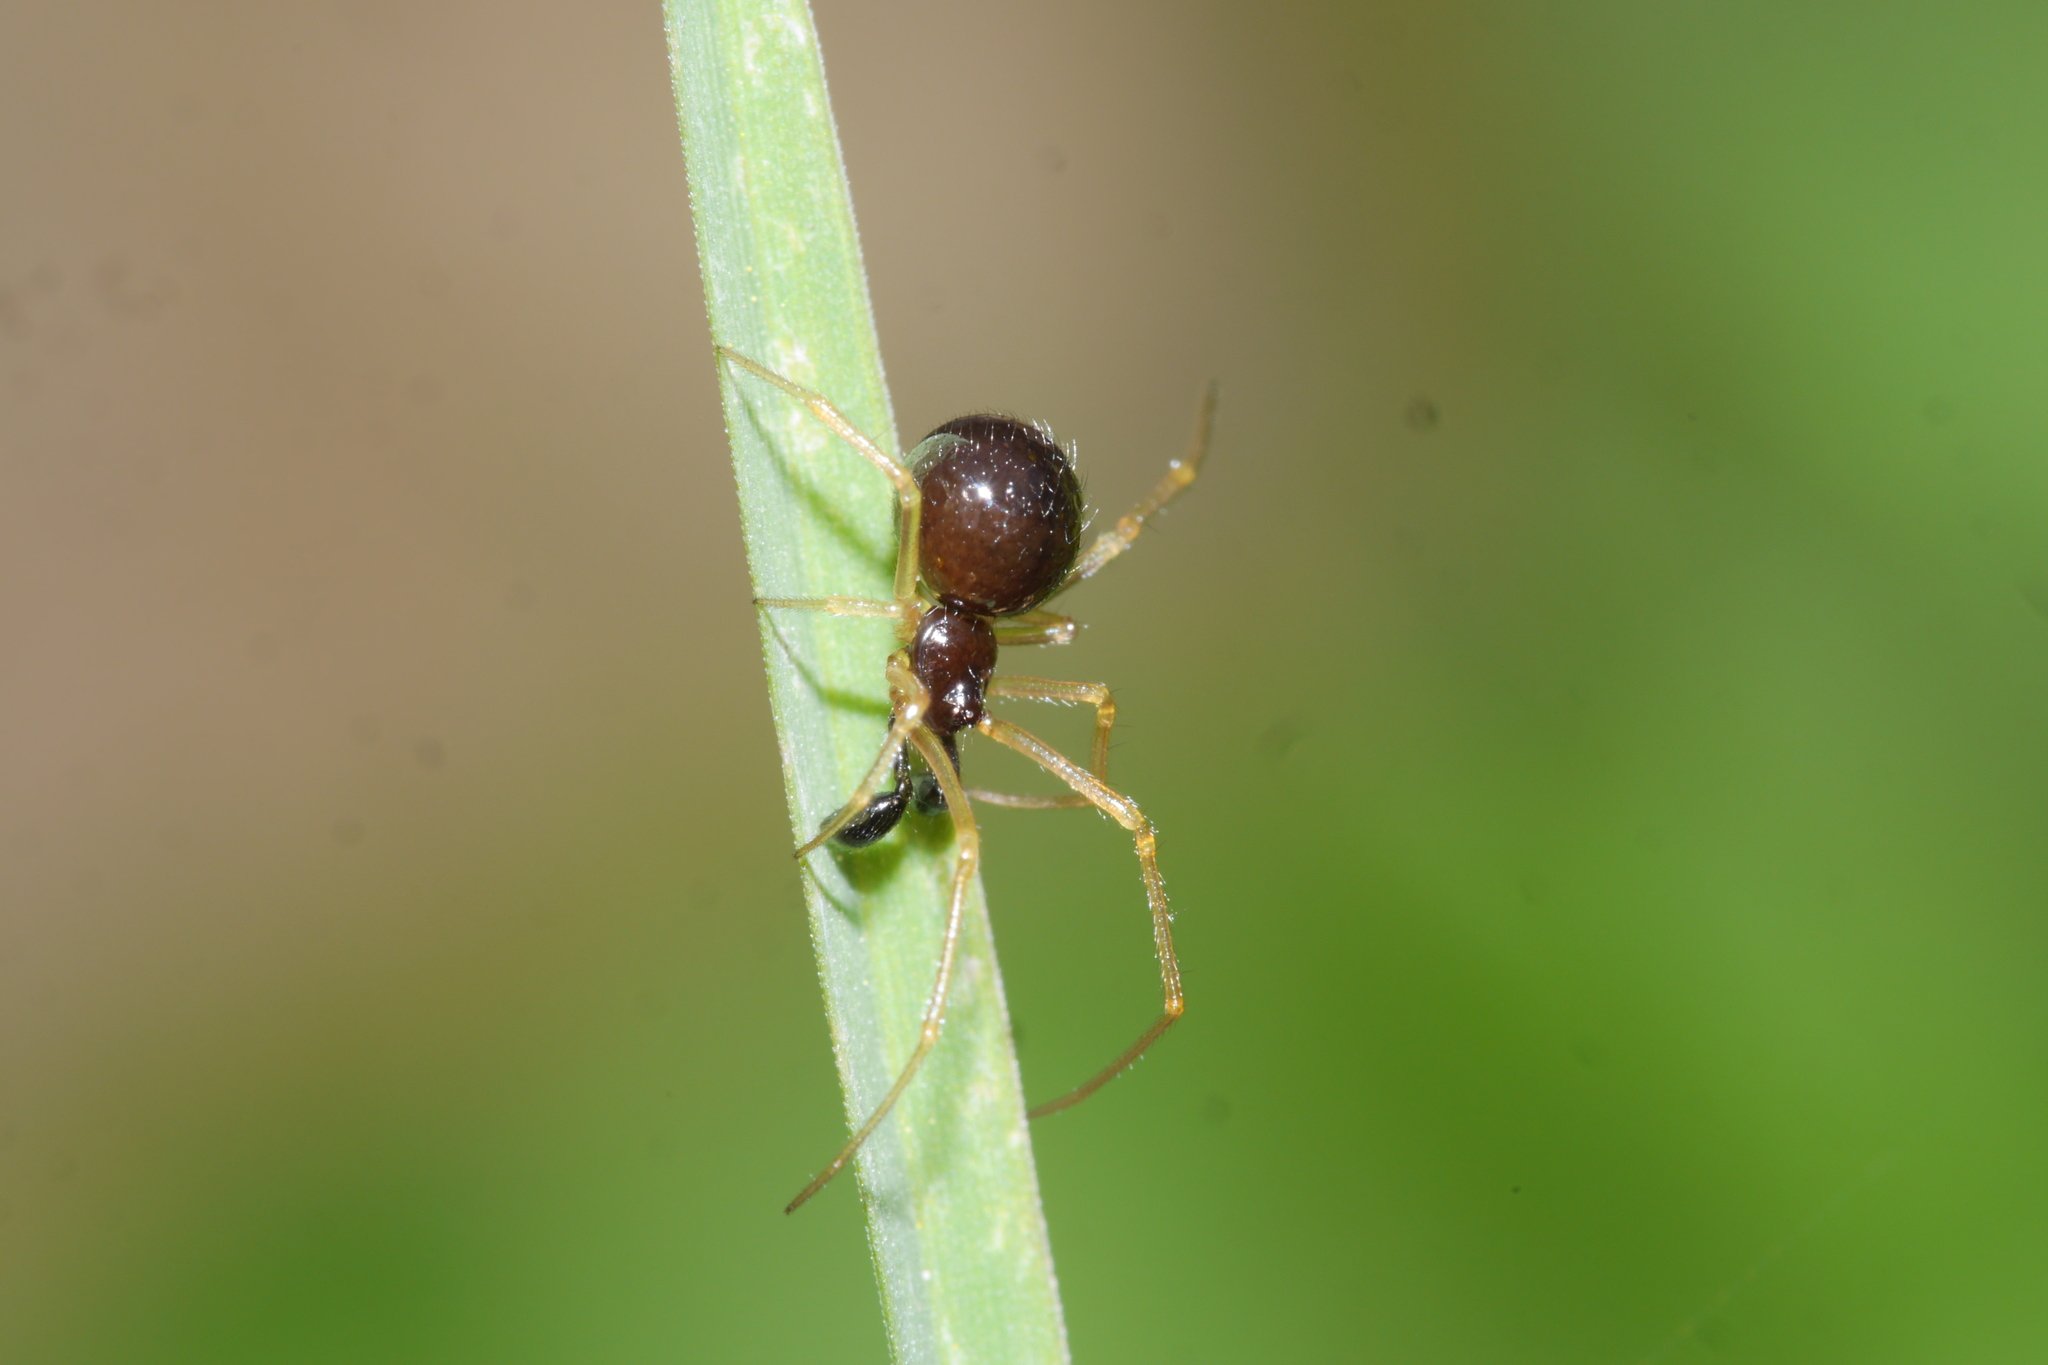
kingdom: Animalia
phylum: Arthropoda
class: Arachnida
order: Araneae
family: Theridiidae
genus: Neottiura
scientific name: Neottiura bimaculata
